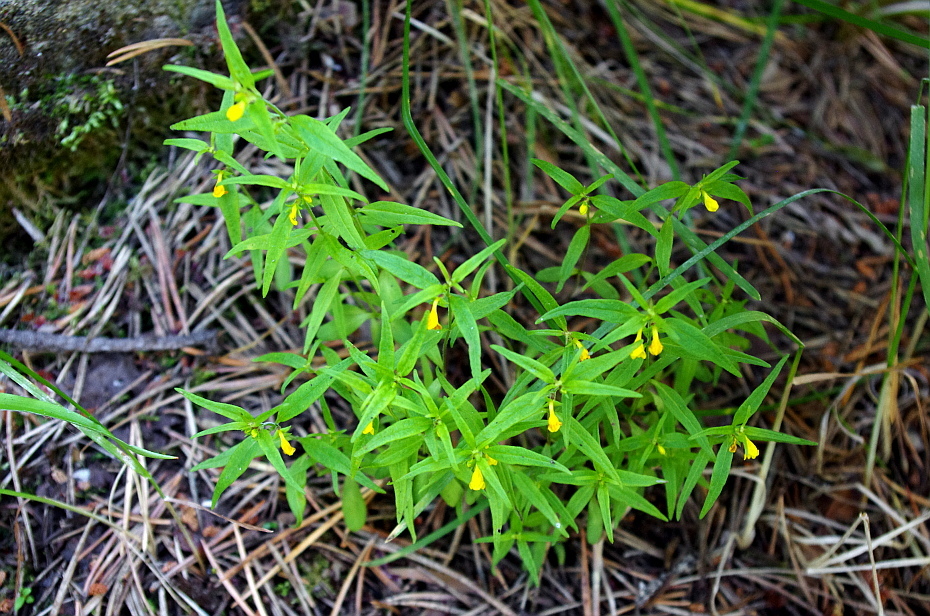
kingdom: Plantae
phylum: Tracheophyta
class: Magnoliopsida
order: Lamiales
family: Orobanchaceae
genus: Melampyrum
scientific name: Melampyrum sylvaticum
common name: Small cow-wheat
